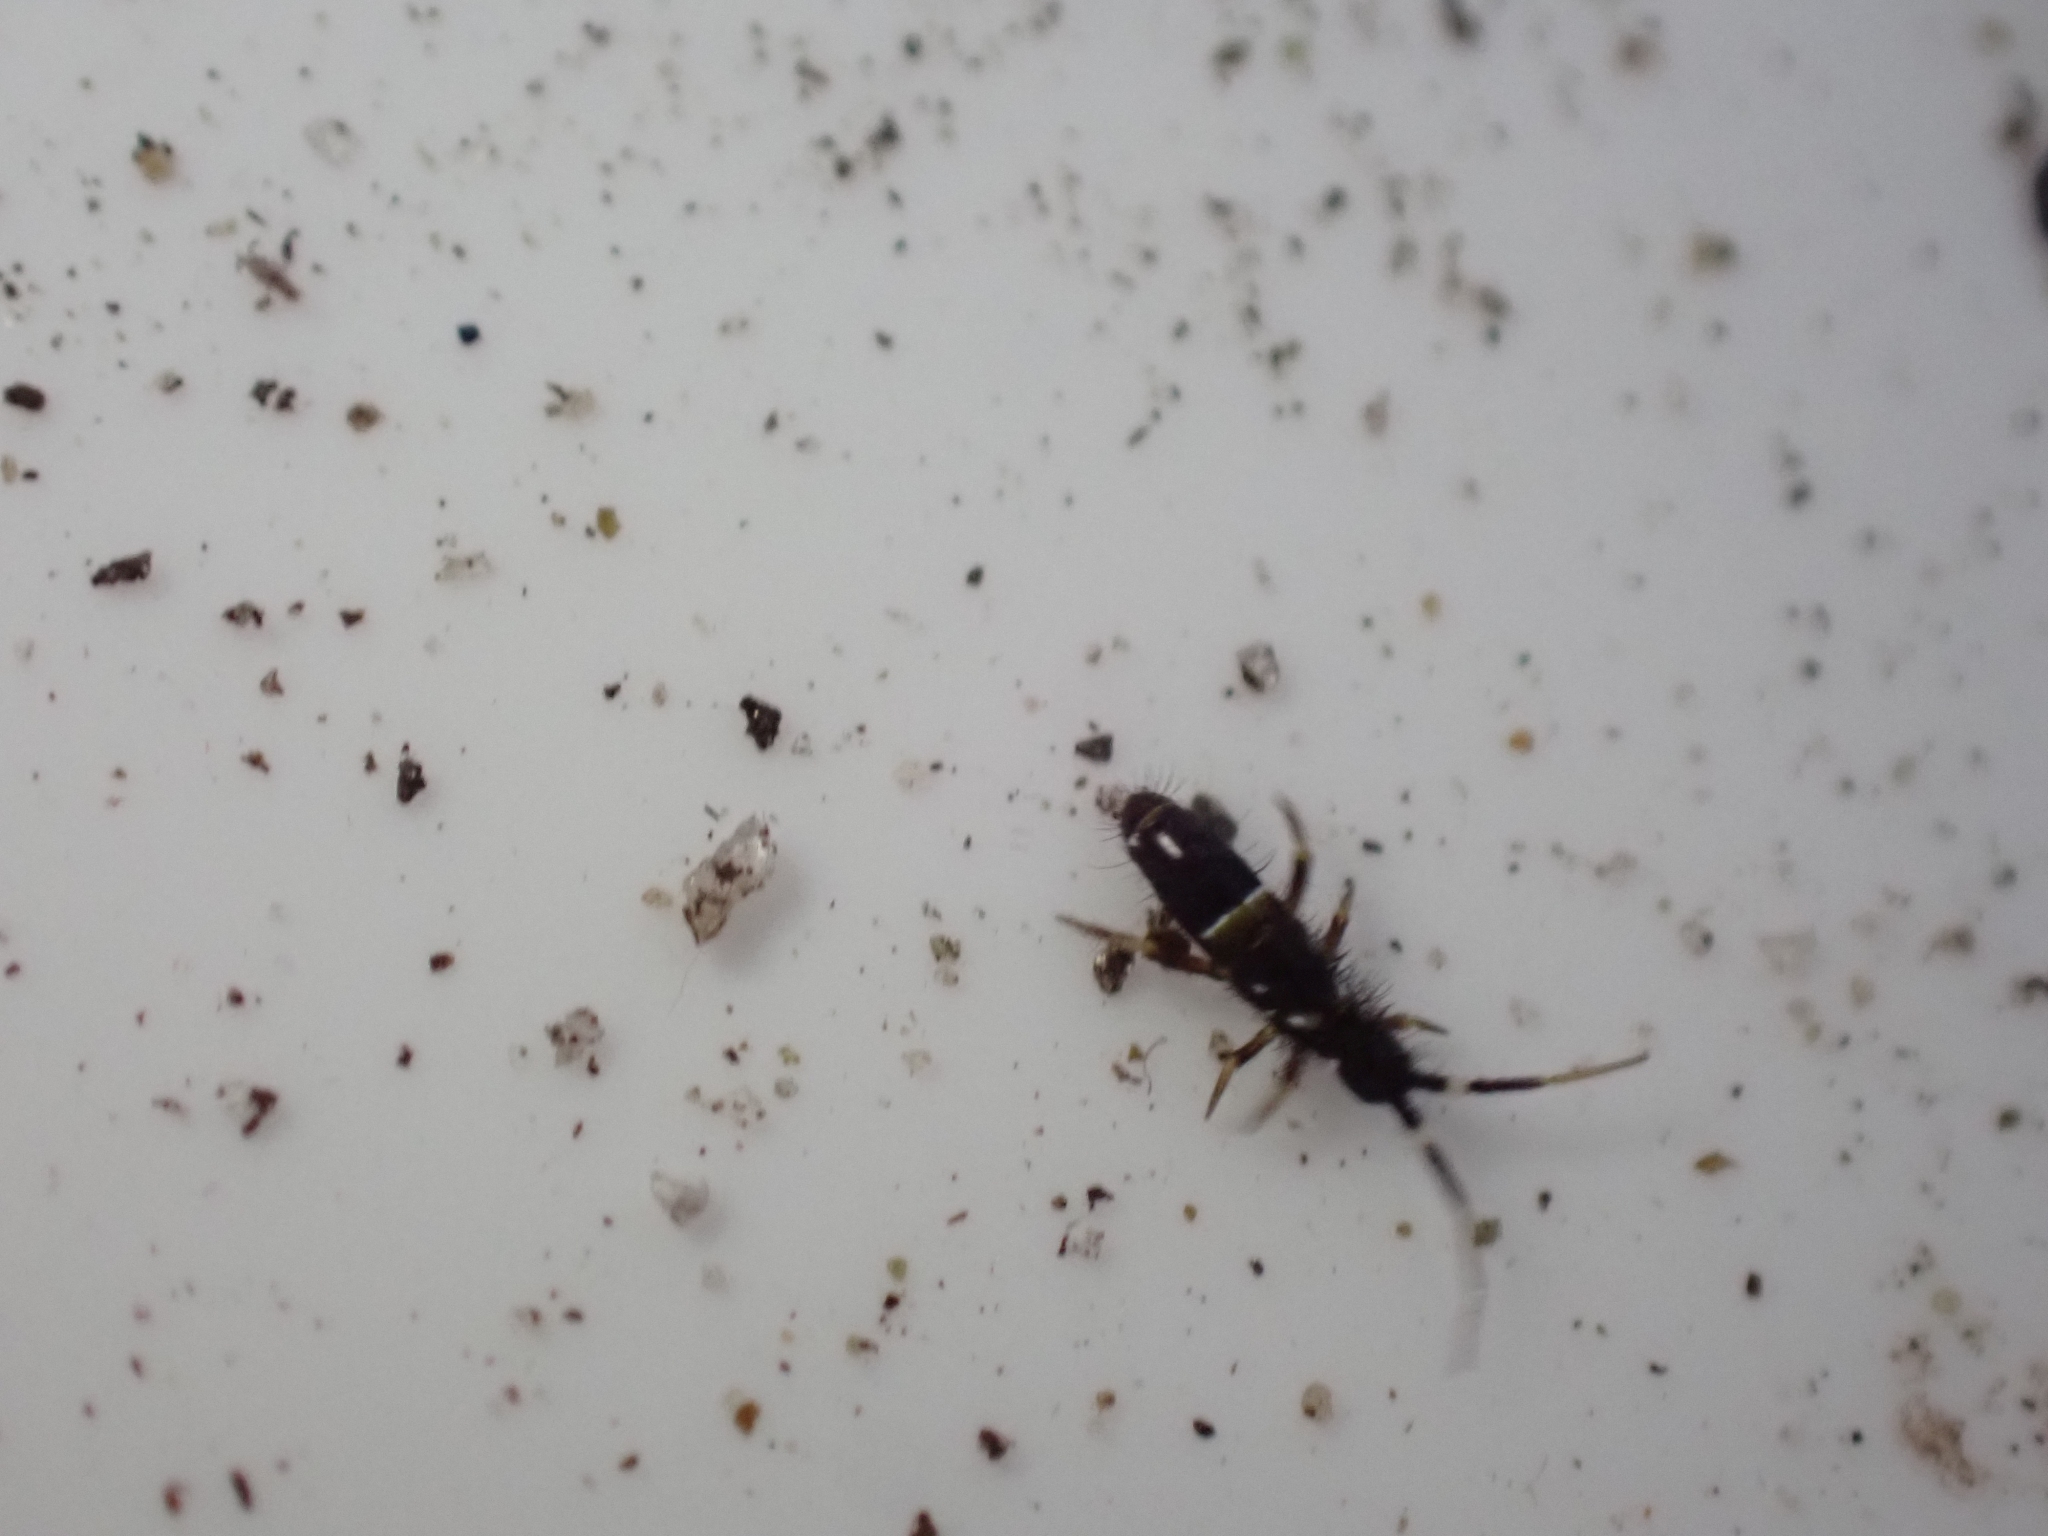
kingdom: Animalia
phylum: Arthropoda
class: Collembola
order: Entomobryomorpha
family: Orchesellidae
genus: Orchesella
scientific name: Orchesella cincta
